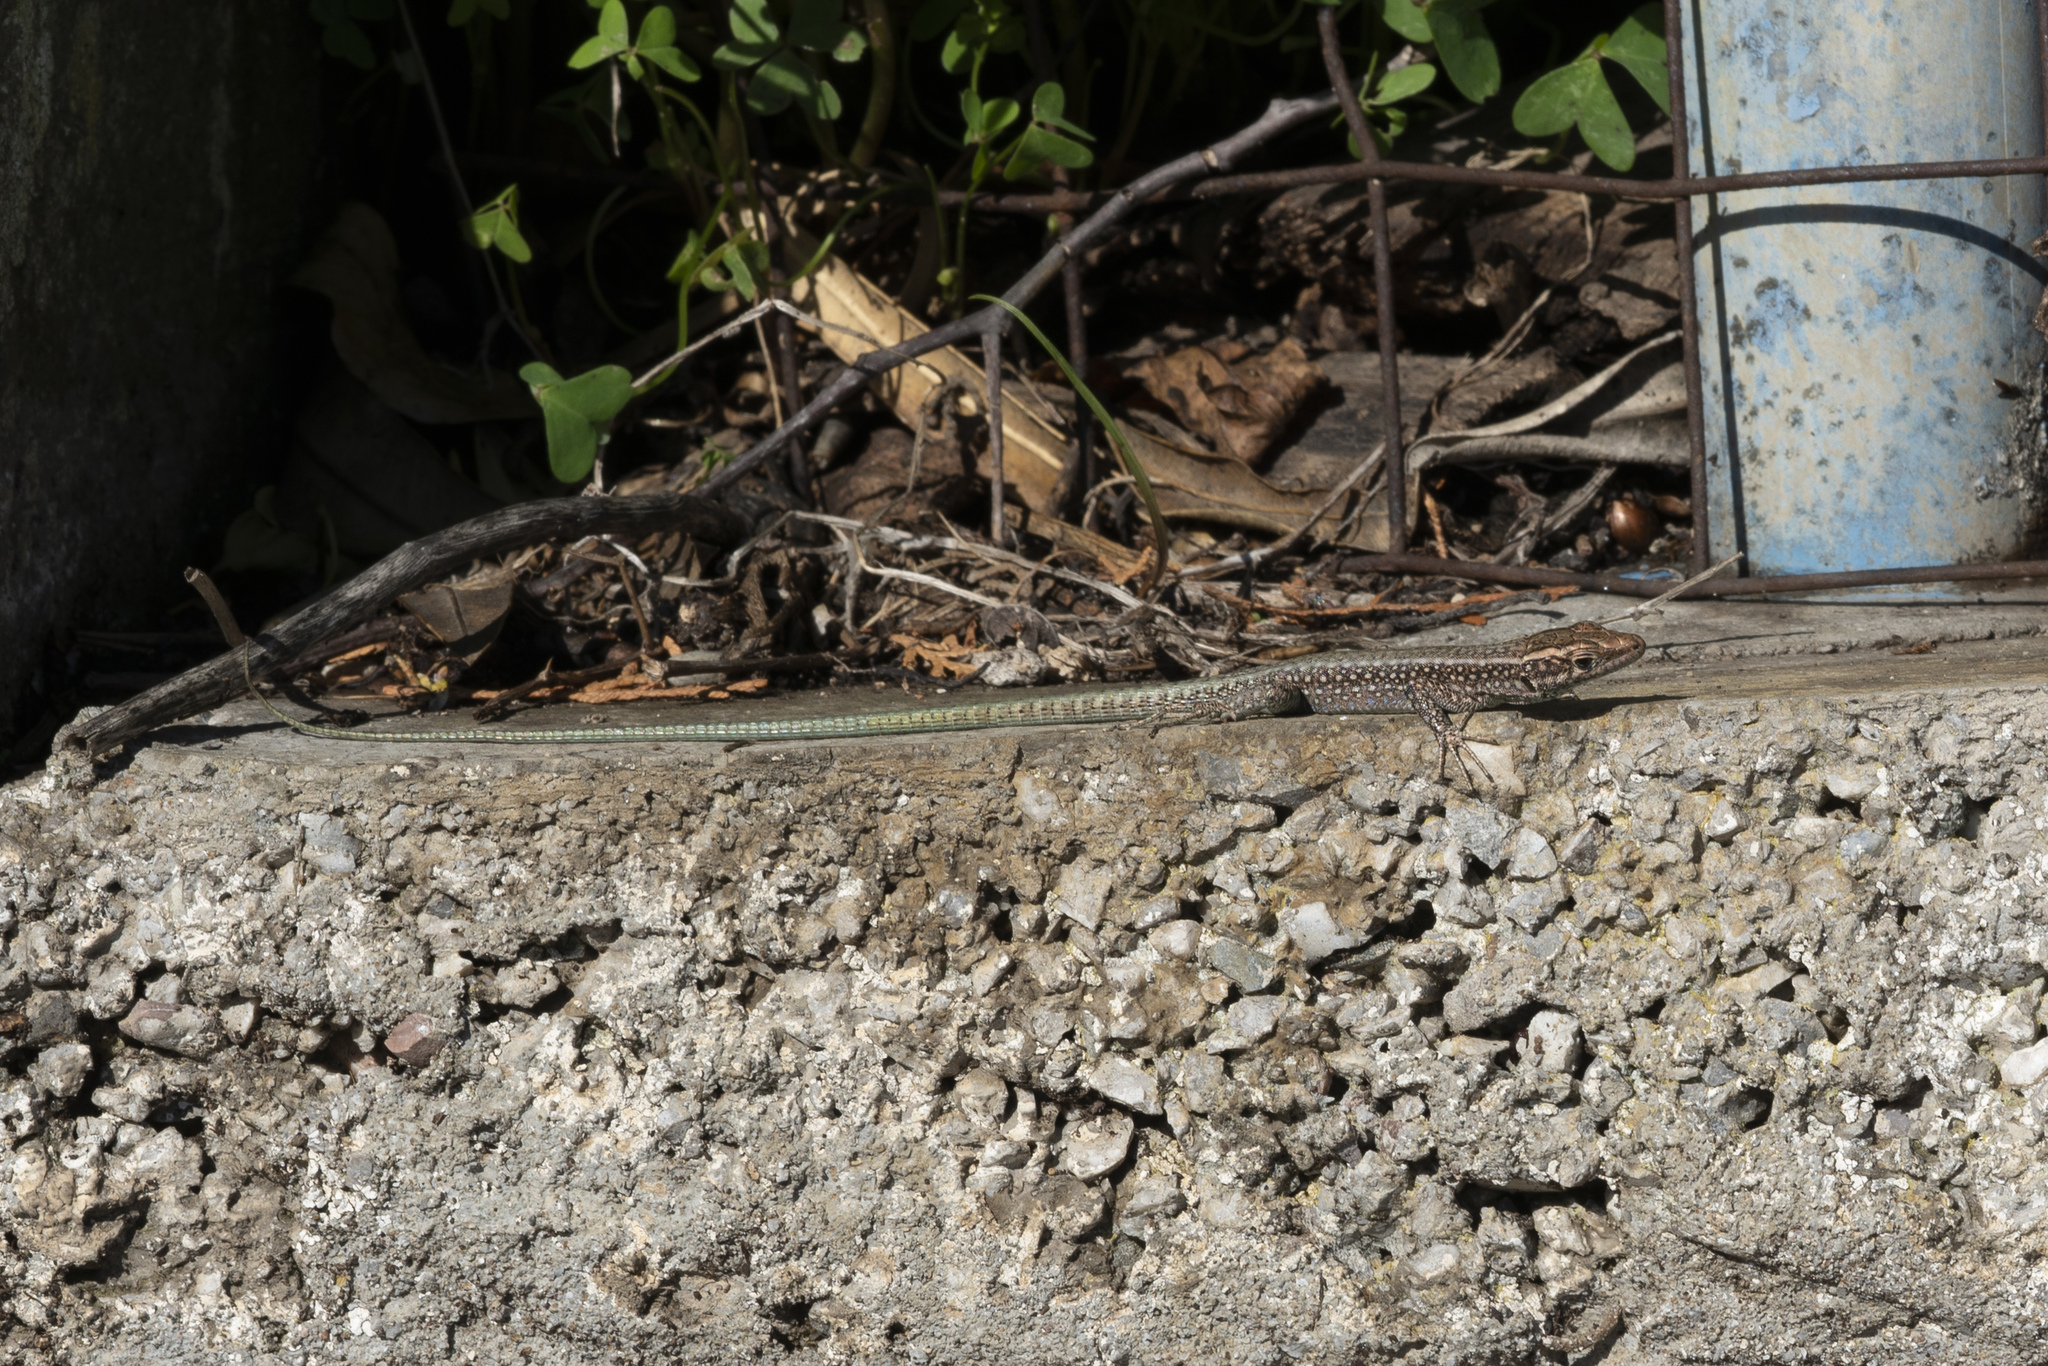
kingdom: Animalia
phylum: Chordata
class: Squamata
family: Lacertidae
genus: Anatololacerta
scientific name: Anatololacerta pelasgiana
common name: Pelasgian rock lizard
